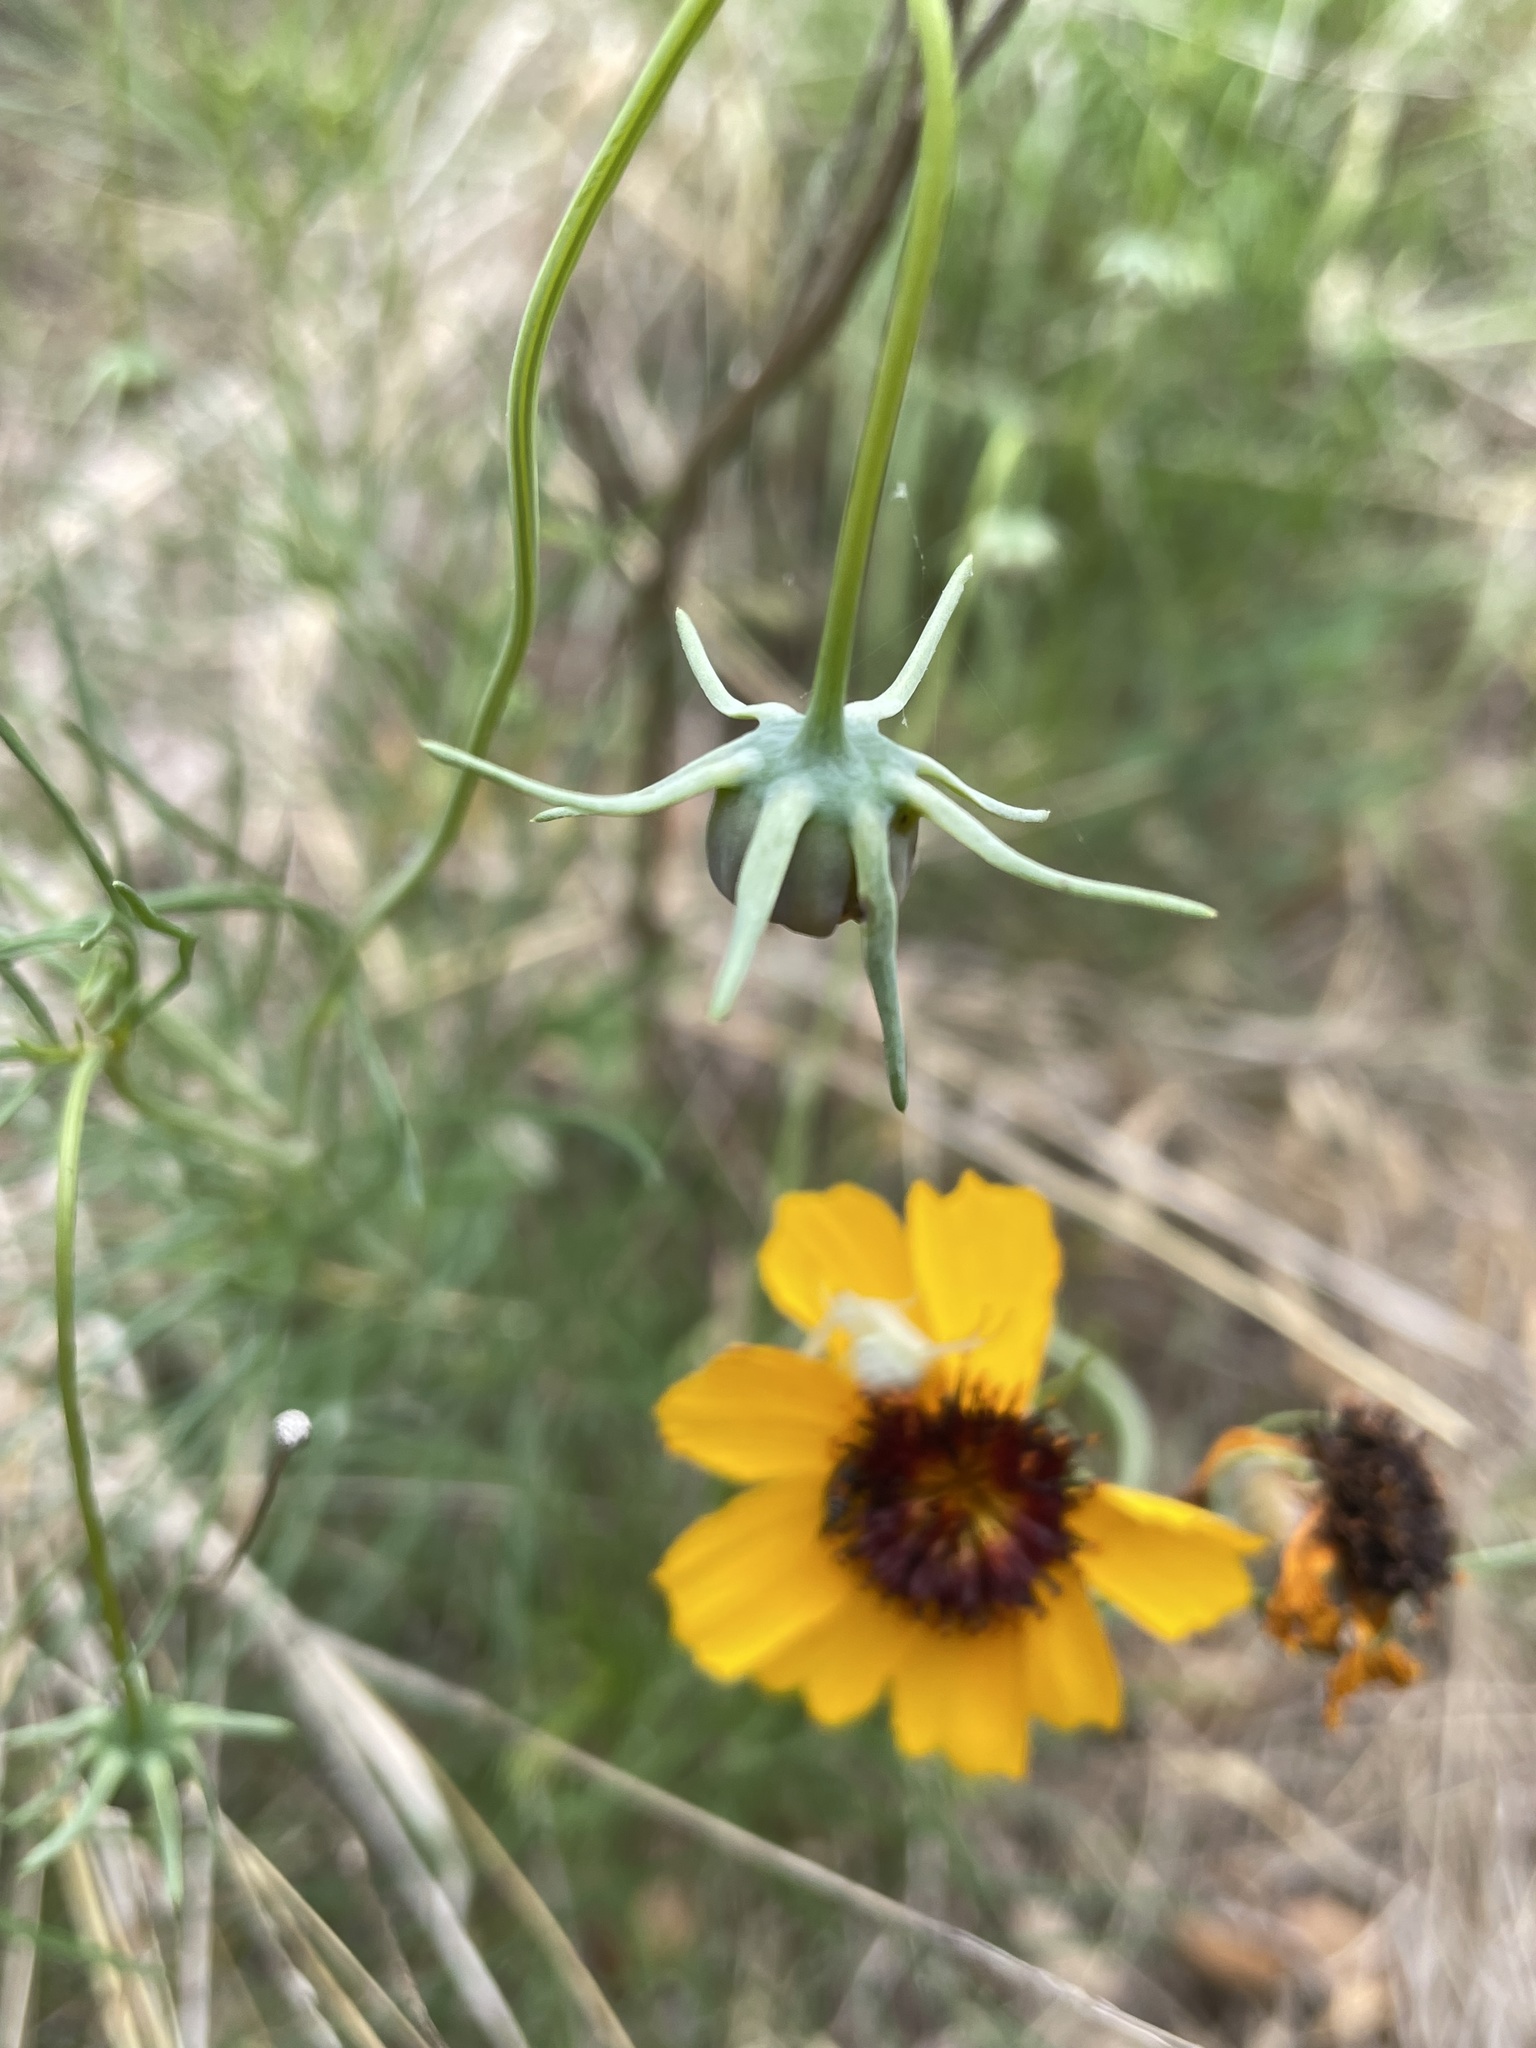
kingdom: Plantae
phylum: Tracheophyta
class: Magnoliopsida
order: Asterales
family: Asteraceae
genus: Thelesperma
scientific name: Thelesperma filifolium
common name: Stiff greenthread
